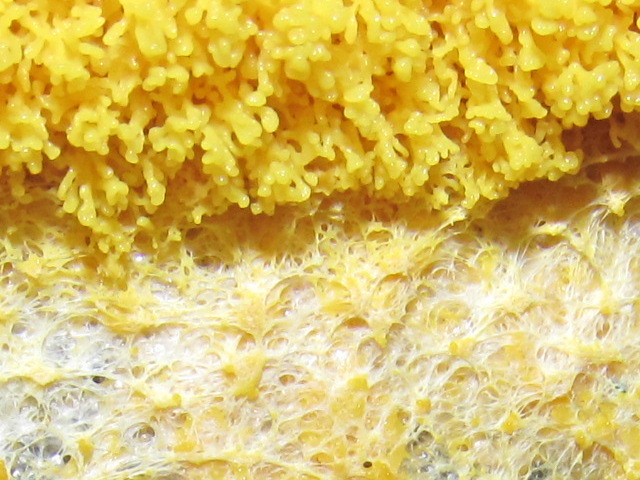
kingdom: Protozoa
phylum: Mycetozoa
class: Myxomycetes
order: Physarales
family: Physaraceae
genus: Fuligo
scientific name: Fuligo septica
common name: Dog vomit slime mold
